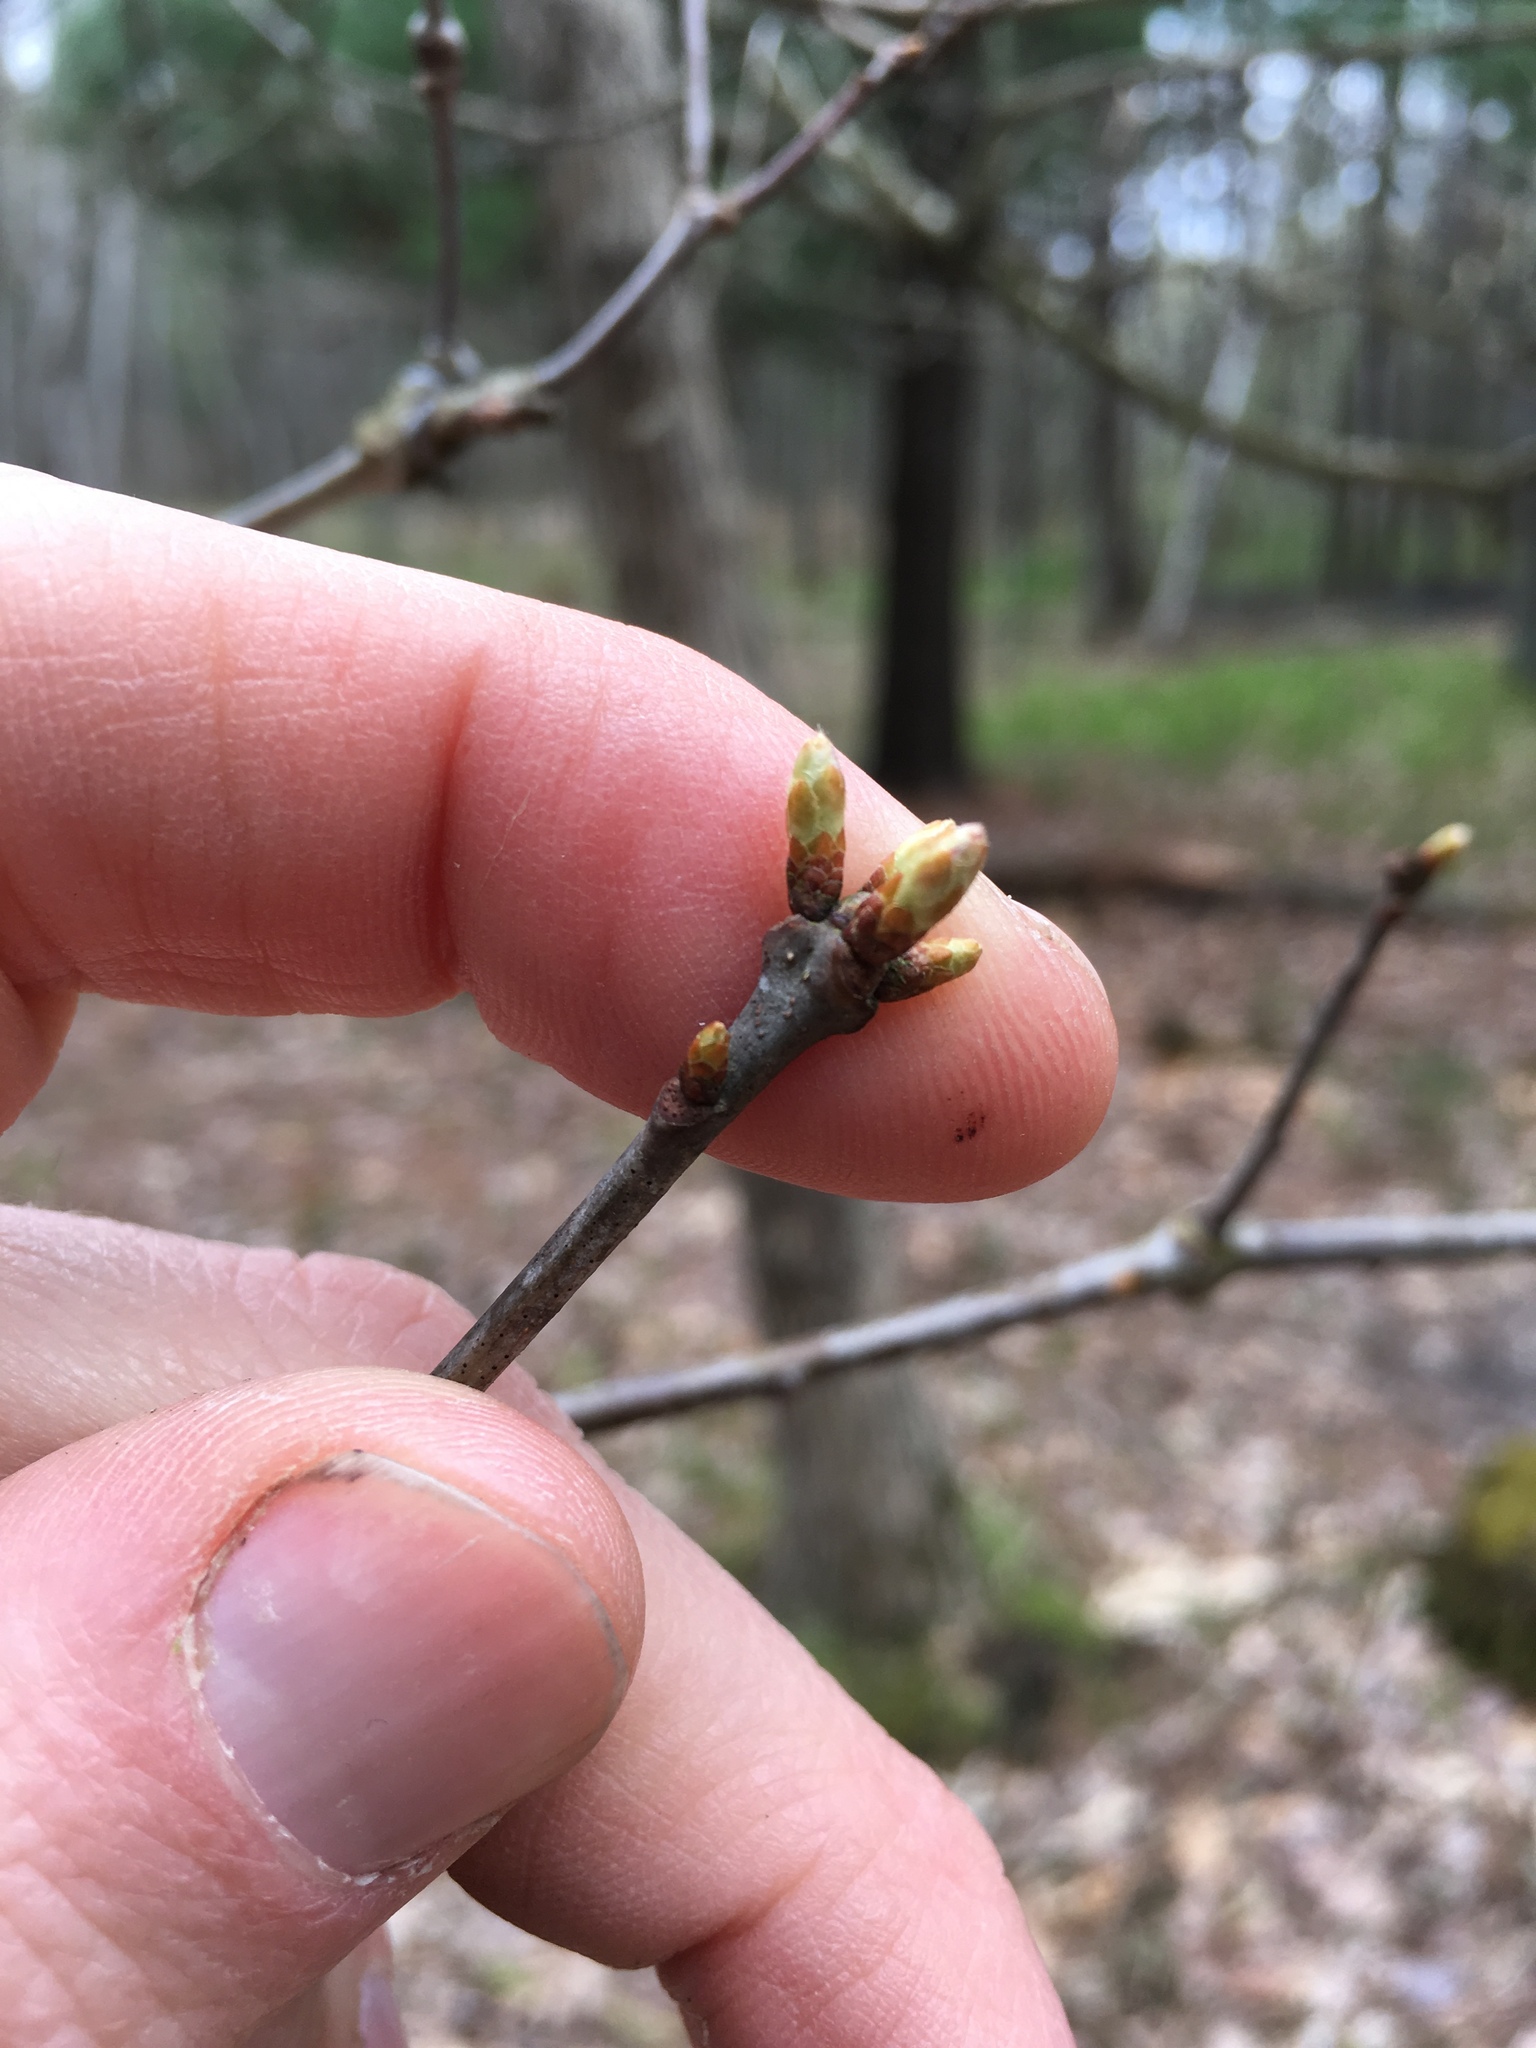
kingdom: Plantae
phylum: Tracheophyta
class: Magnoliopsida
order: Fagales
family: Fagaceae
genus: Quercus
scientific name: Quercus alba
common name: White oak
